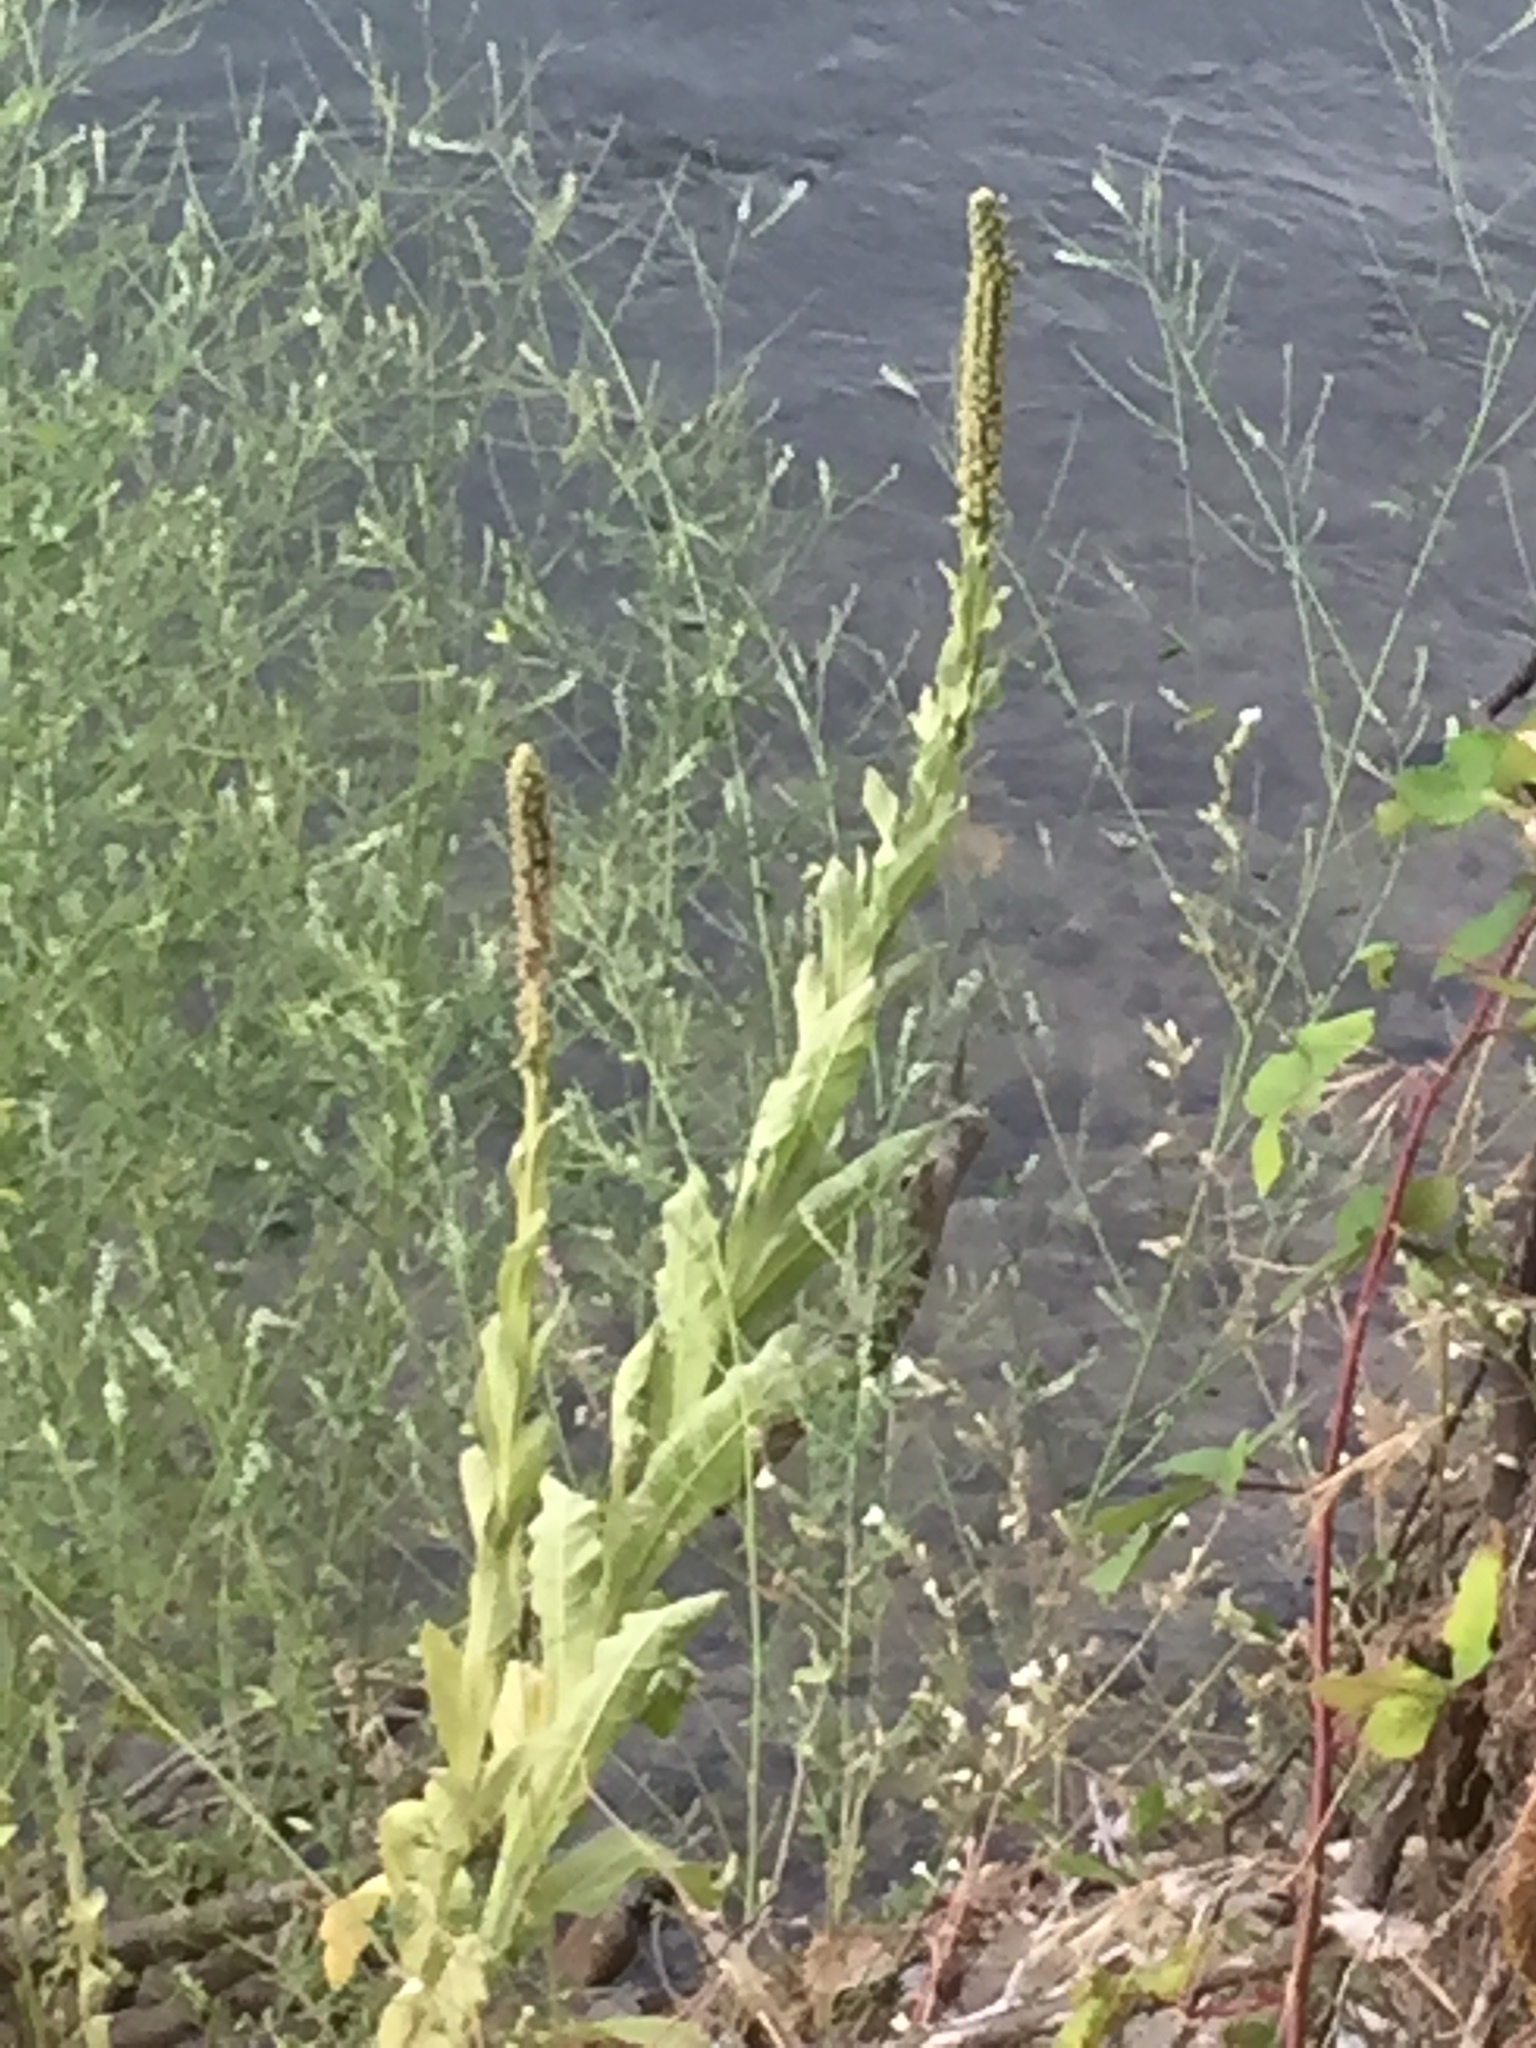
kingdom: Plantae
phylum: Tracheophyta
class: Magnoliopsida
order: Lamiales
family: Scrophulariaceae
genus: Verbascum
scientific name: Verbascum thapsus
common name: Common mullein
